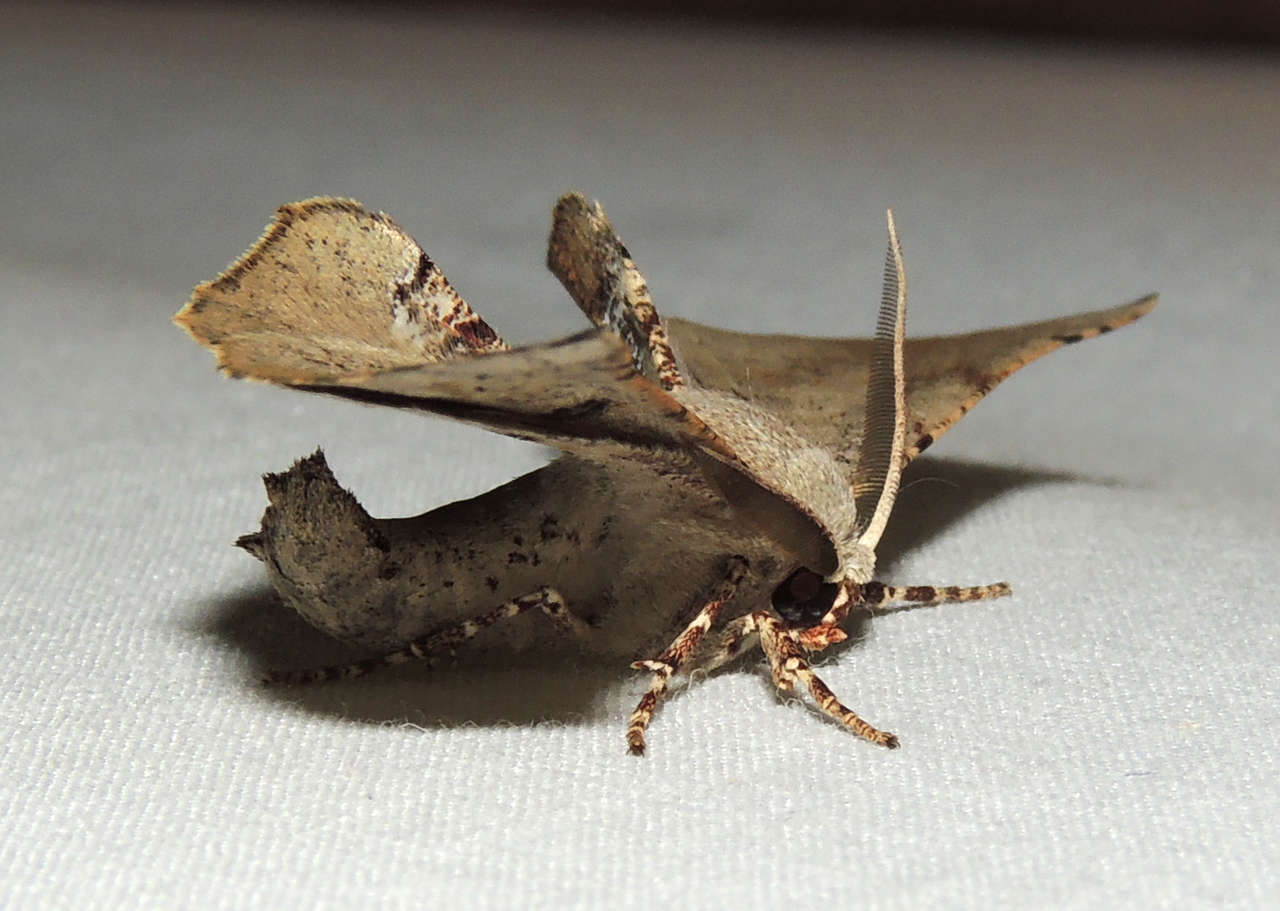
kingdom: Animalia
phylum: Arthropoda
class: Insecta
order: Lepidoptera
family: Geometridae
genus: Circopetes
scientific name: Circopetes obtusata
